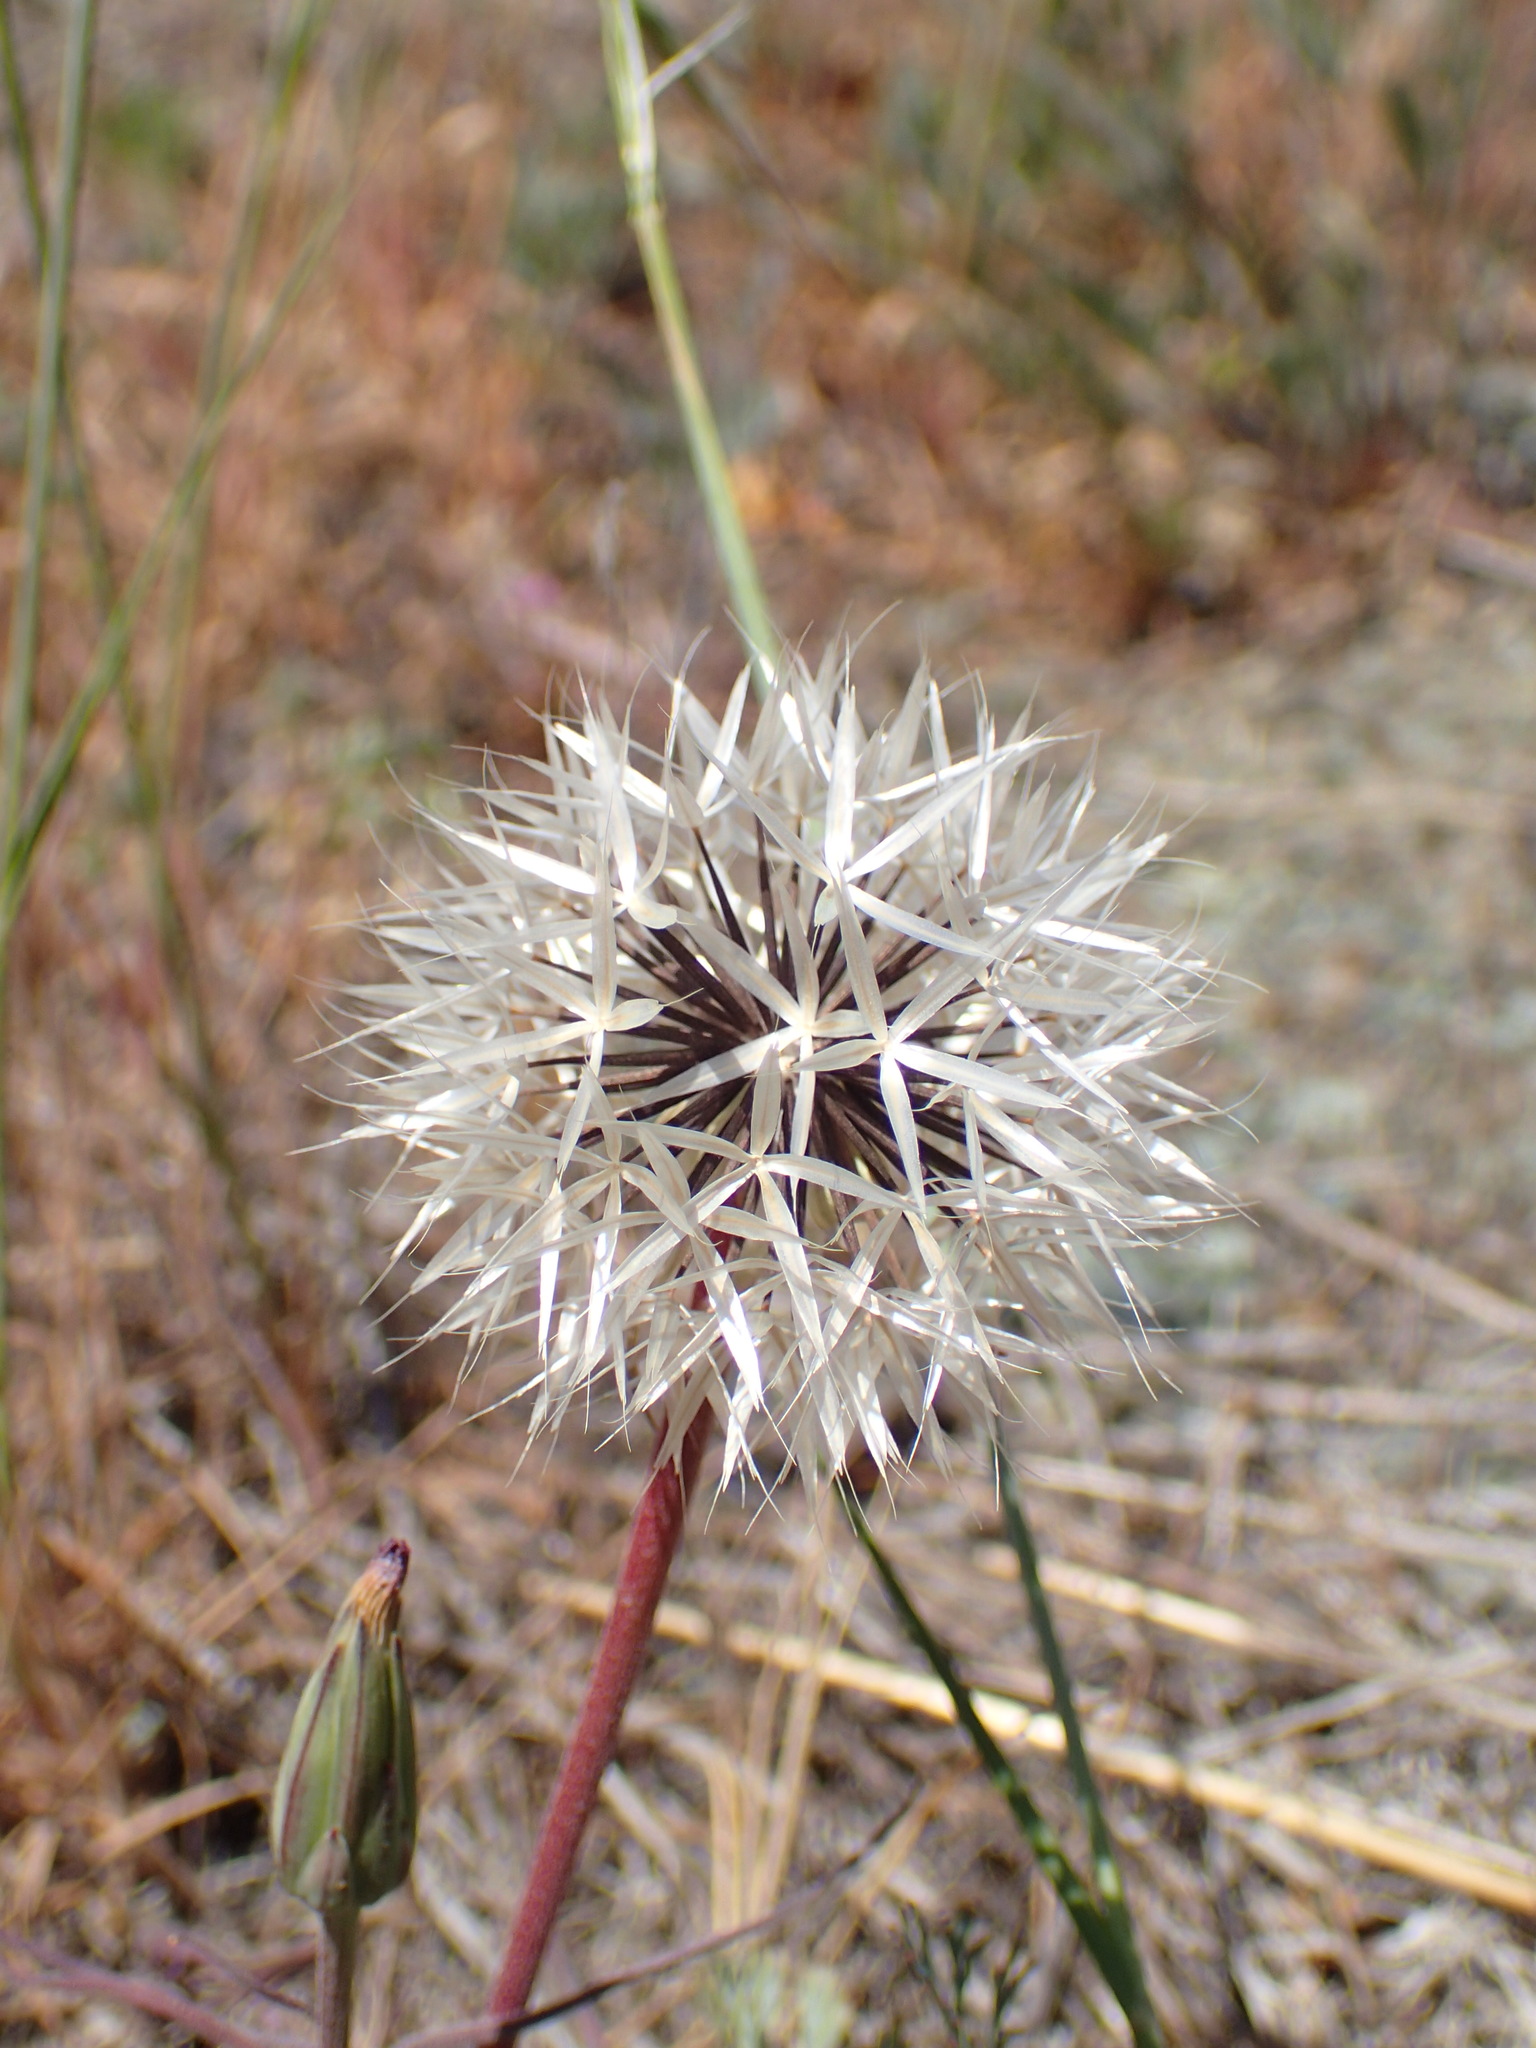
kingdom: Plantae
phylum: Tracheophyta
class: Magnoliopsida
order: Asterales
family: Asteraceae
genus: Microseris
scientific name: Microseris lindleyi
